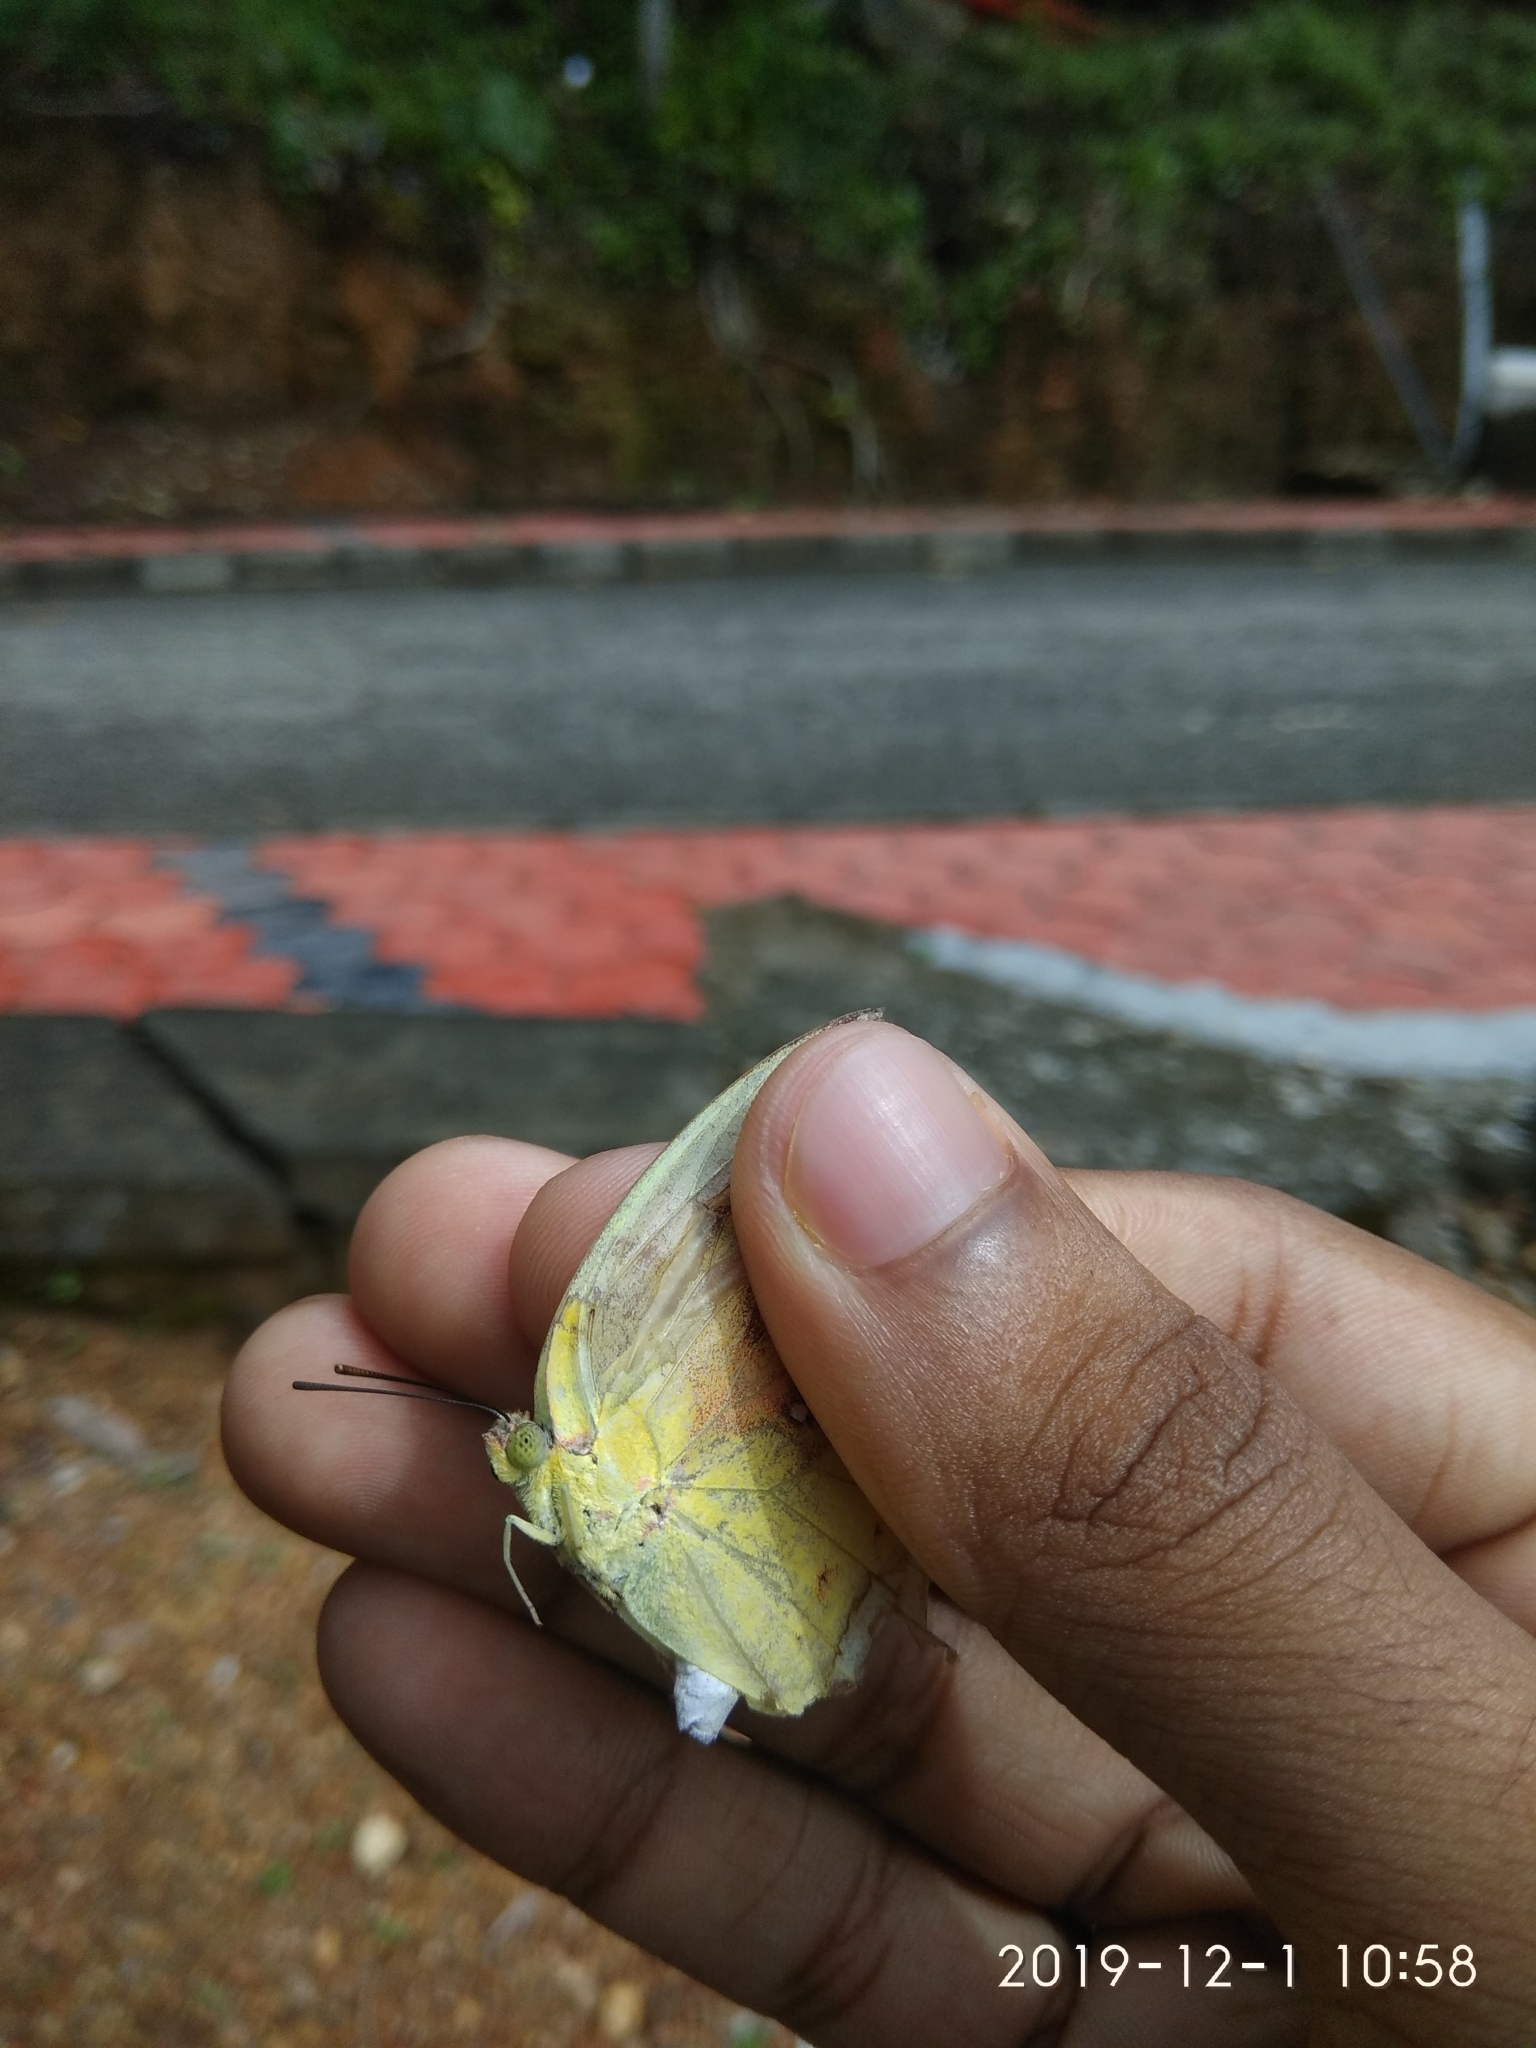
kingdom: Animalia
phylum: Arthropoda
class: Insecta
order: Lepidoptera
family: Pieridae
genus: Catopsilia
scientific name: Catopsilia pomona
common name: Common emigrant
